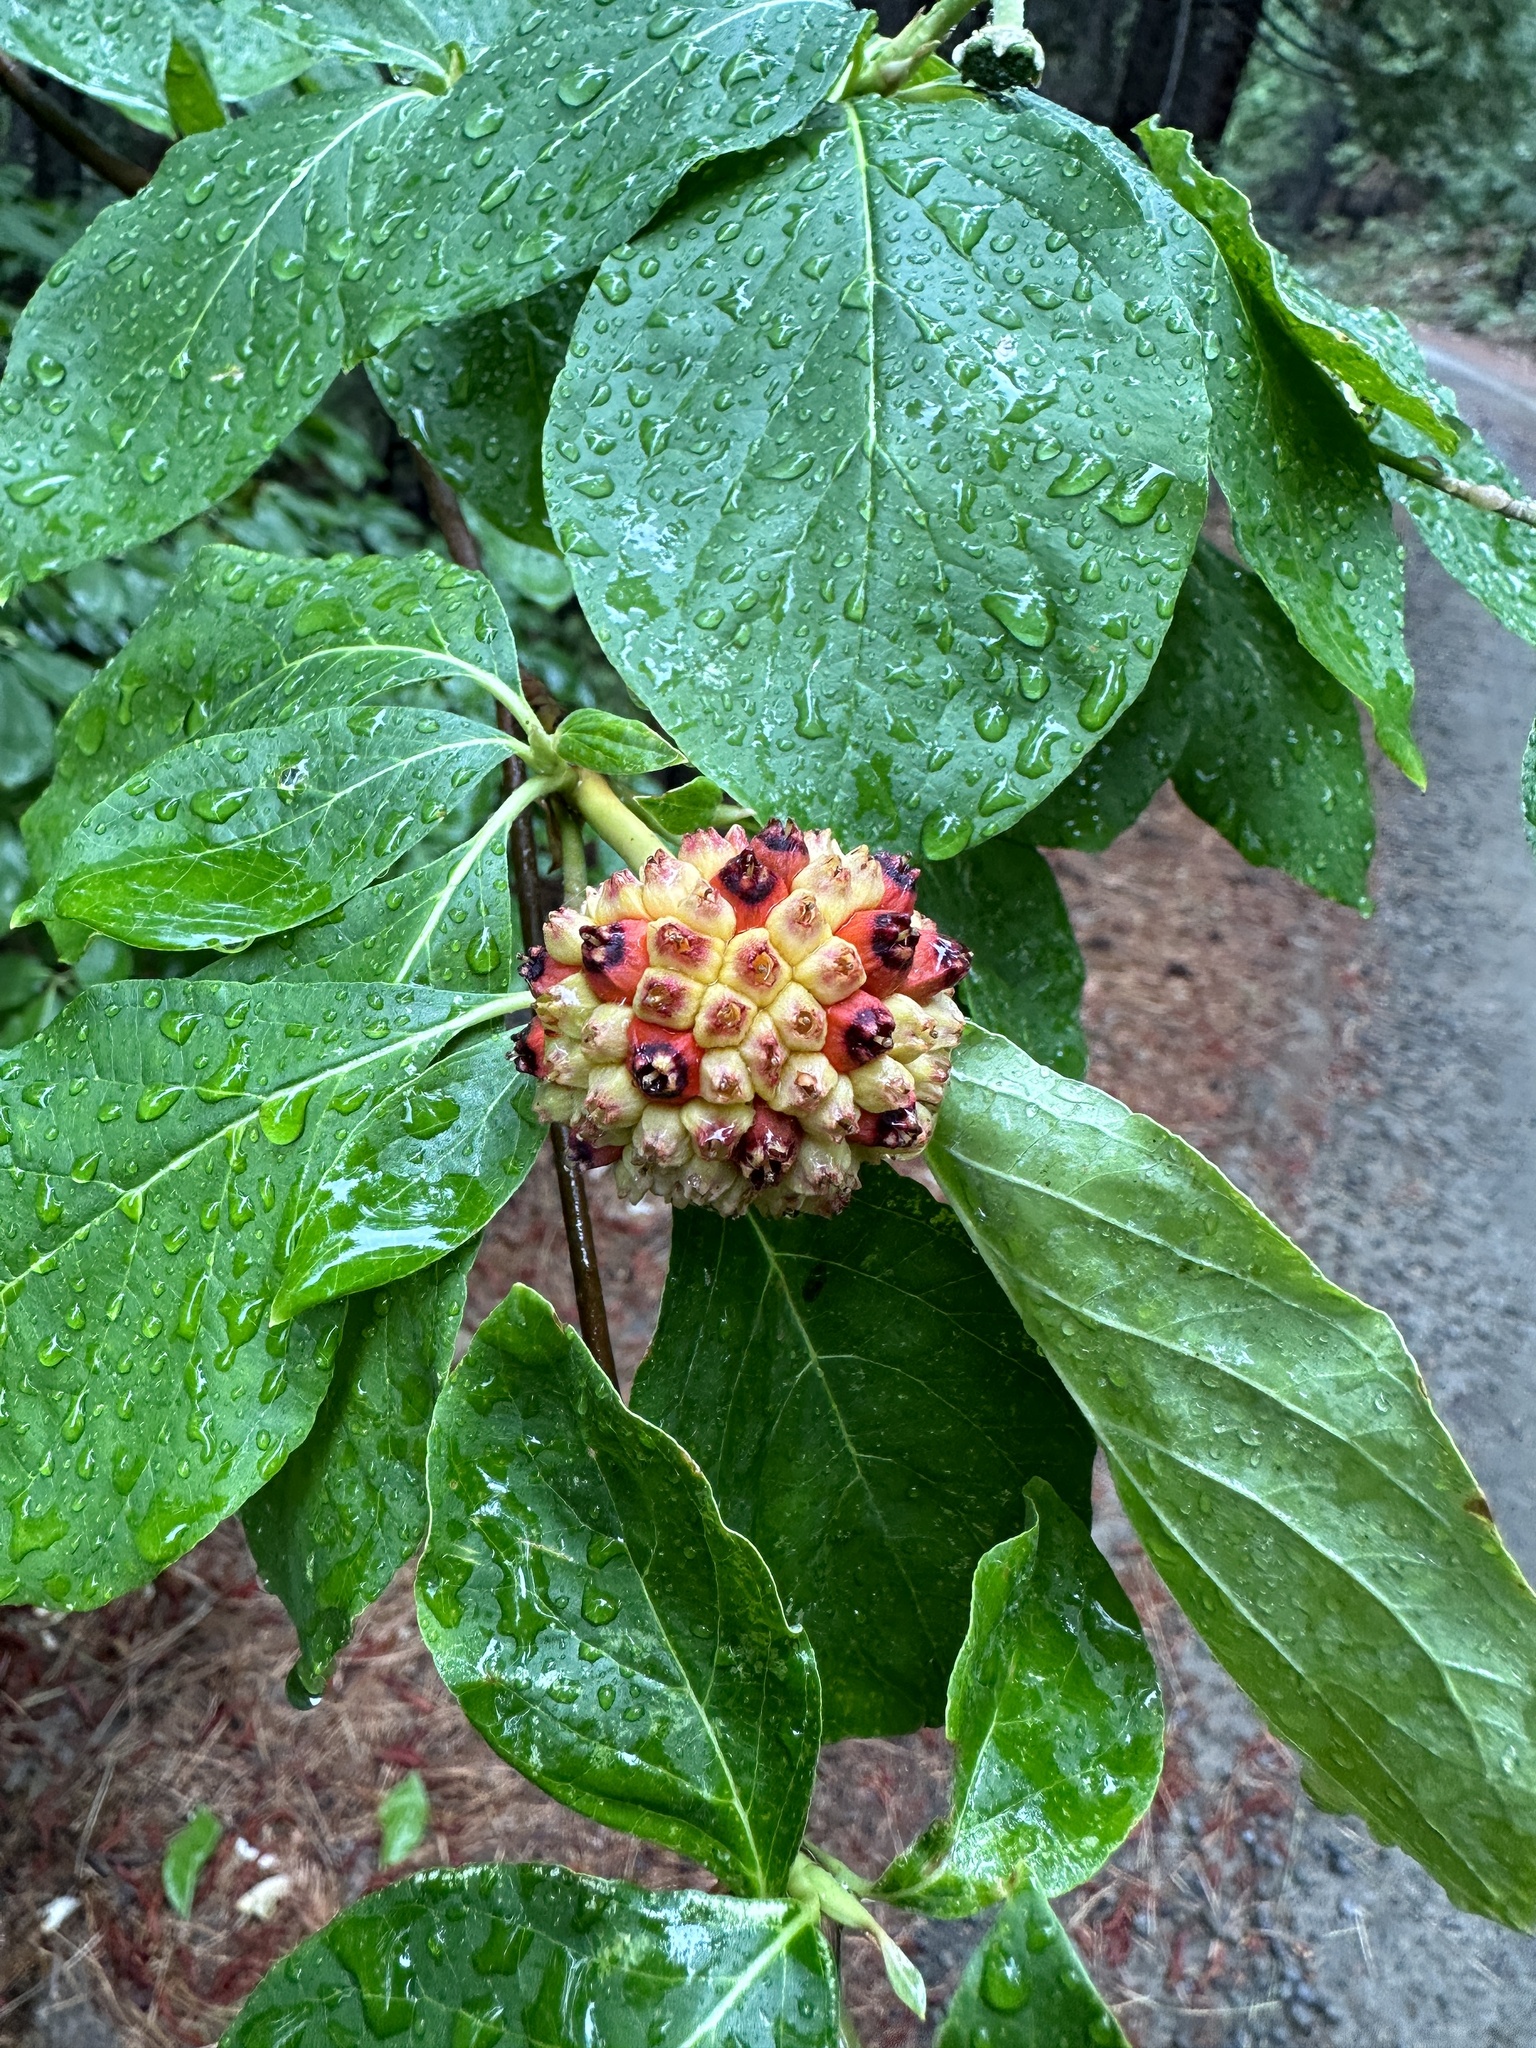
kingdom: Plantae
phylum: Tracheophyta
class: Magnoliopsida
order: Cornales
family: Cornaceae
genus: Cornus
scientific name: Cornus nuttallii
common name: Pacific dogwood
